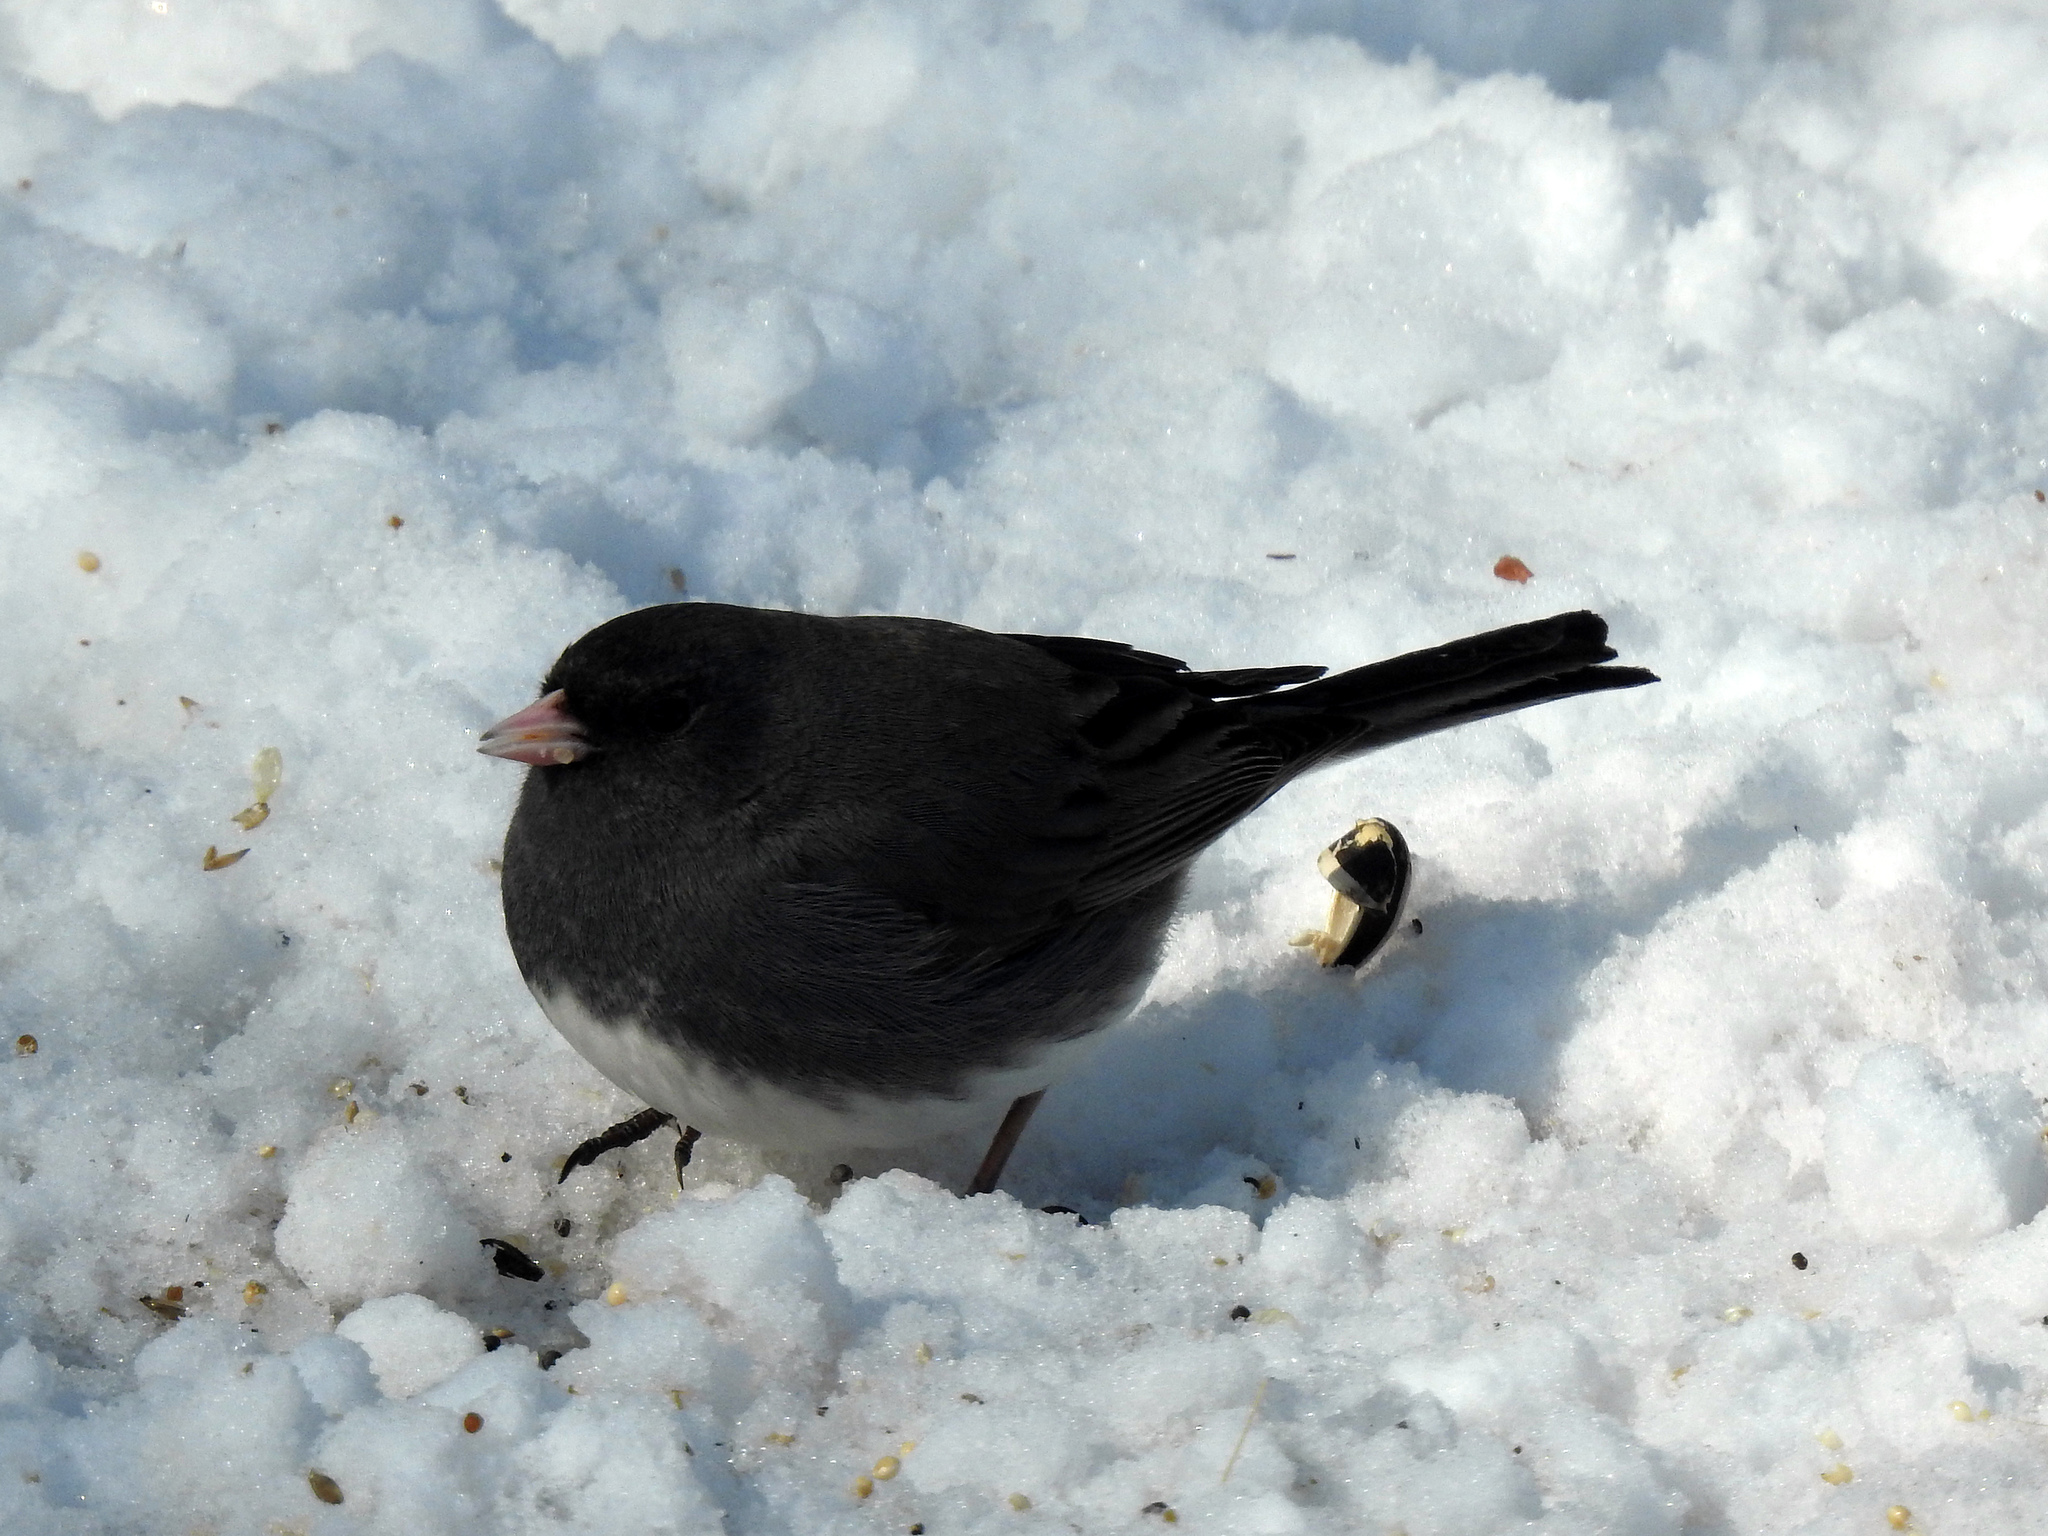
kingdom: Animalia
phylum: Chordata
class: Aves
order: Passeriformes
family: Passerellidae
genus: Junco
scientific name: Junco hyemalis
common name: Dark-eyed junco
